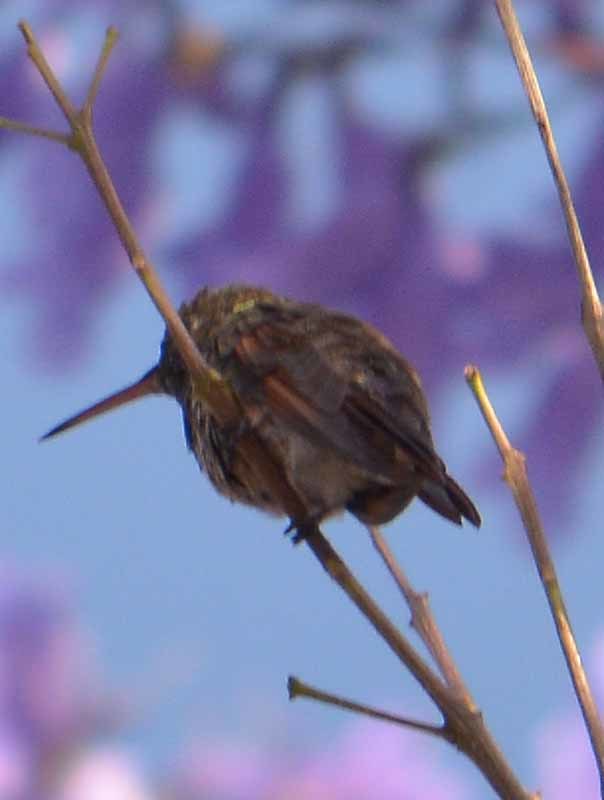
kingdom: Animalia
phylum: Chordata
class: Aves
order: Apodiformes
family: Trochilidae
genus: Saucerottia
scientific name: Saucerottia beryllina
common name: Berylline hummingbird
